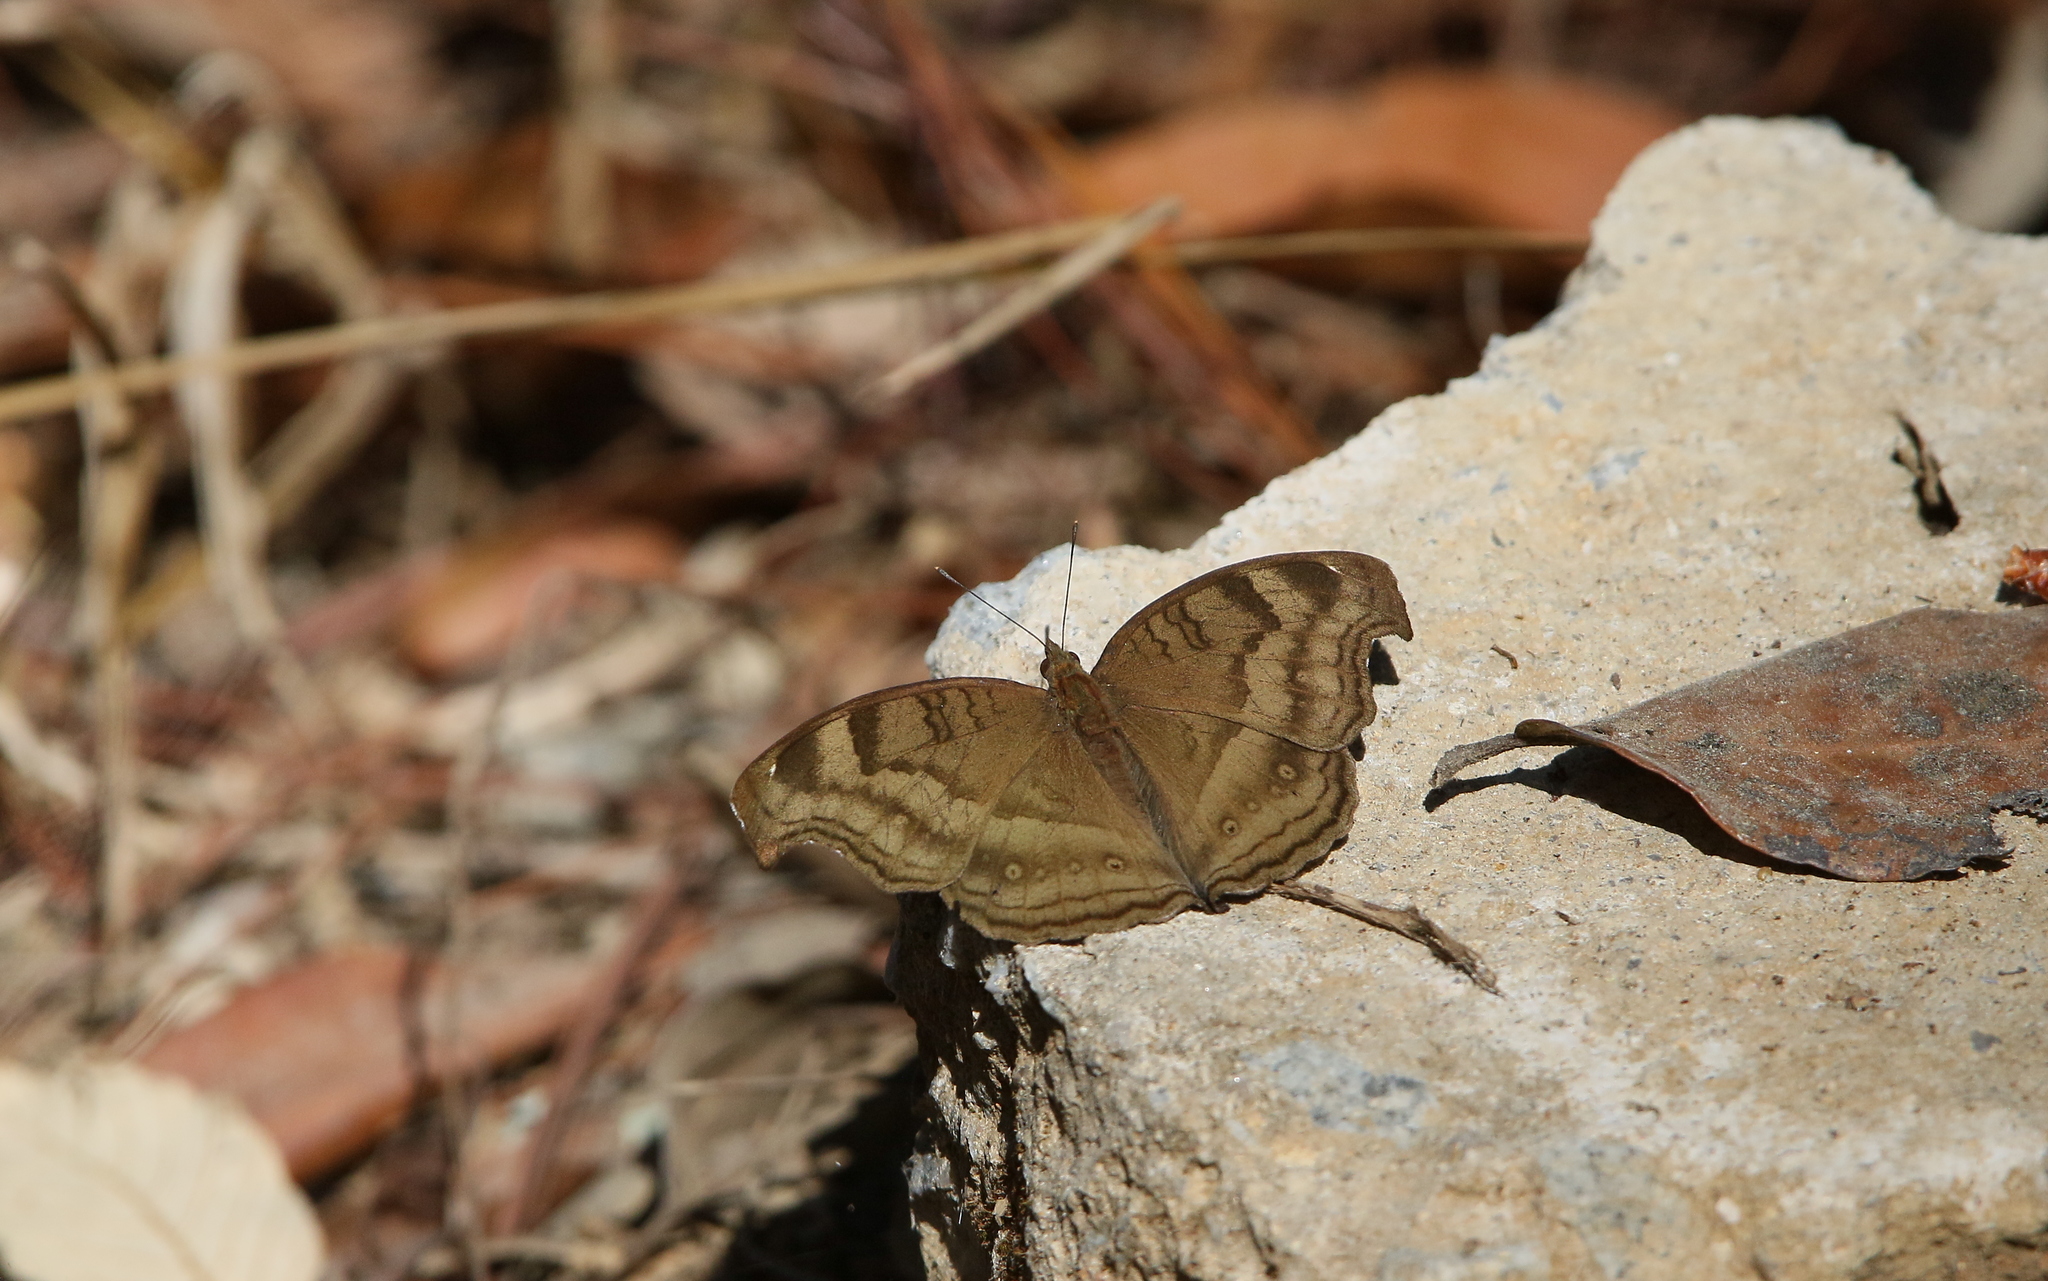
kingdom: Animalia
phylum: Arthropoda
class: Insecta
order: Lepidoptera
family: Nymphalidae
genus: Junonia
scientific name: Junonia iphita
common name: Chocolate pansy
